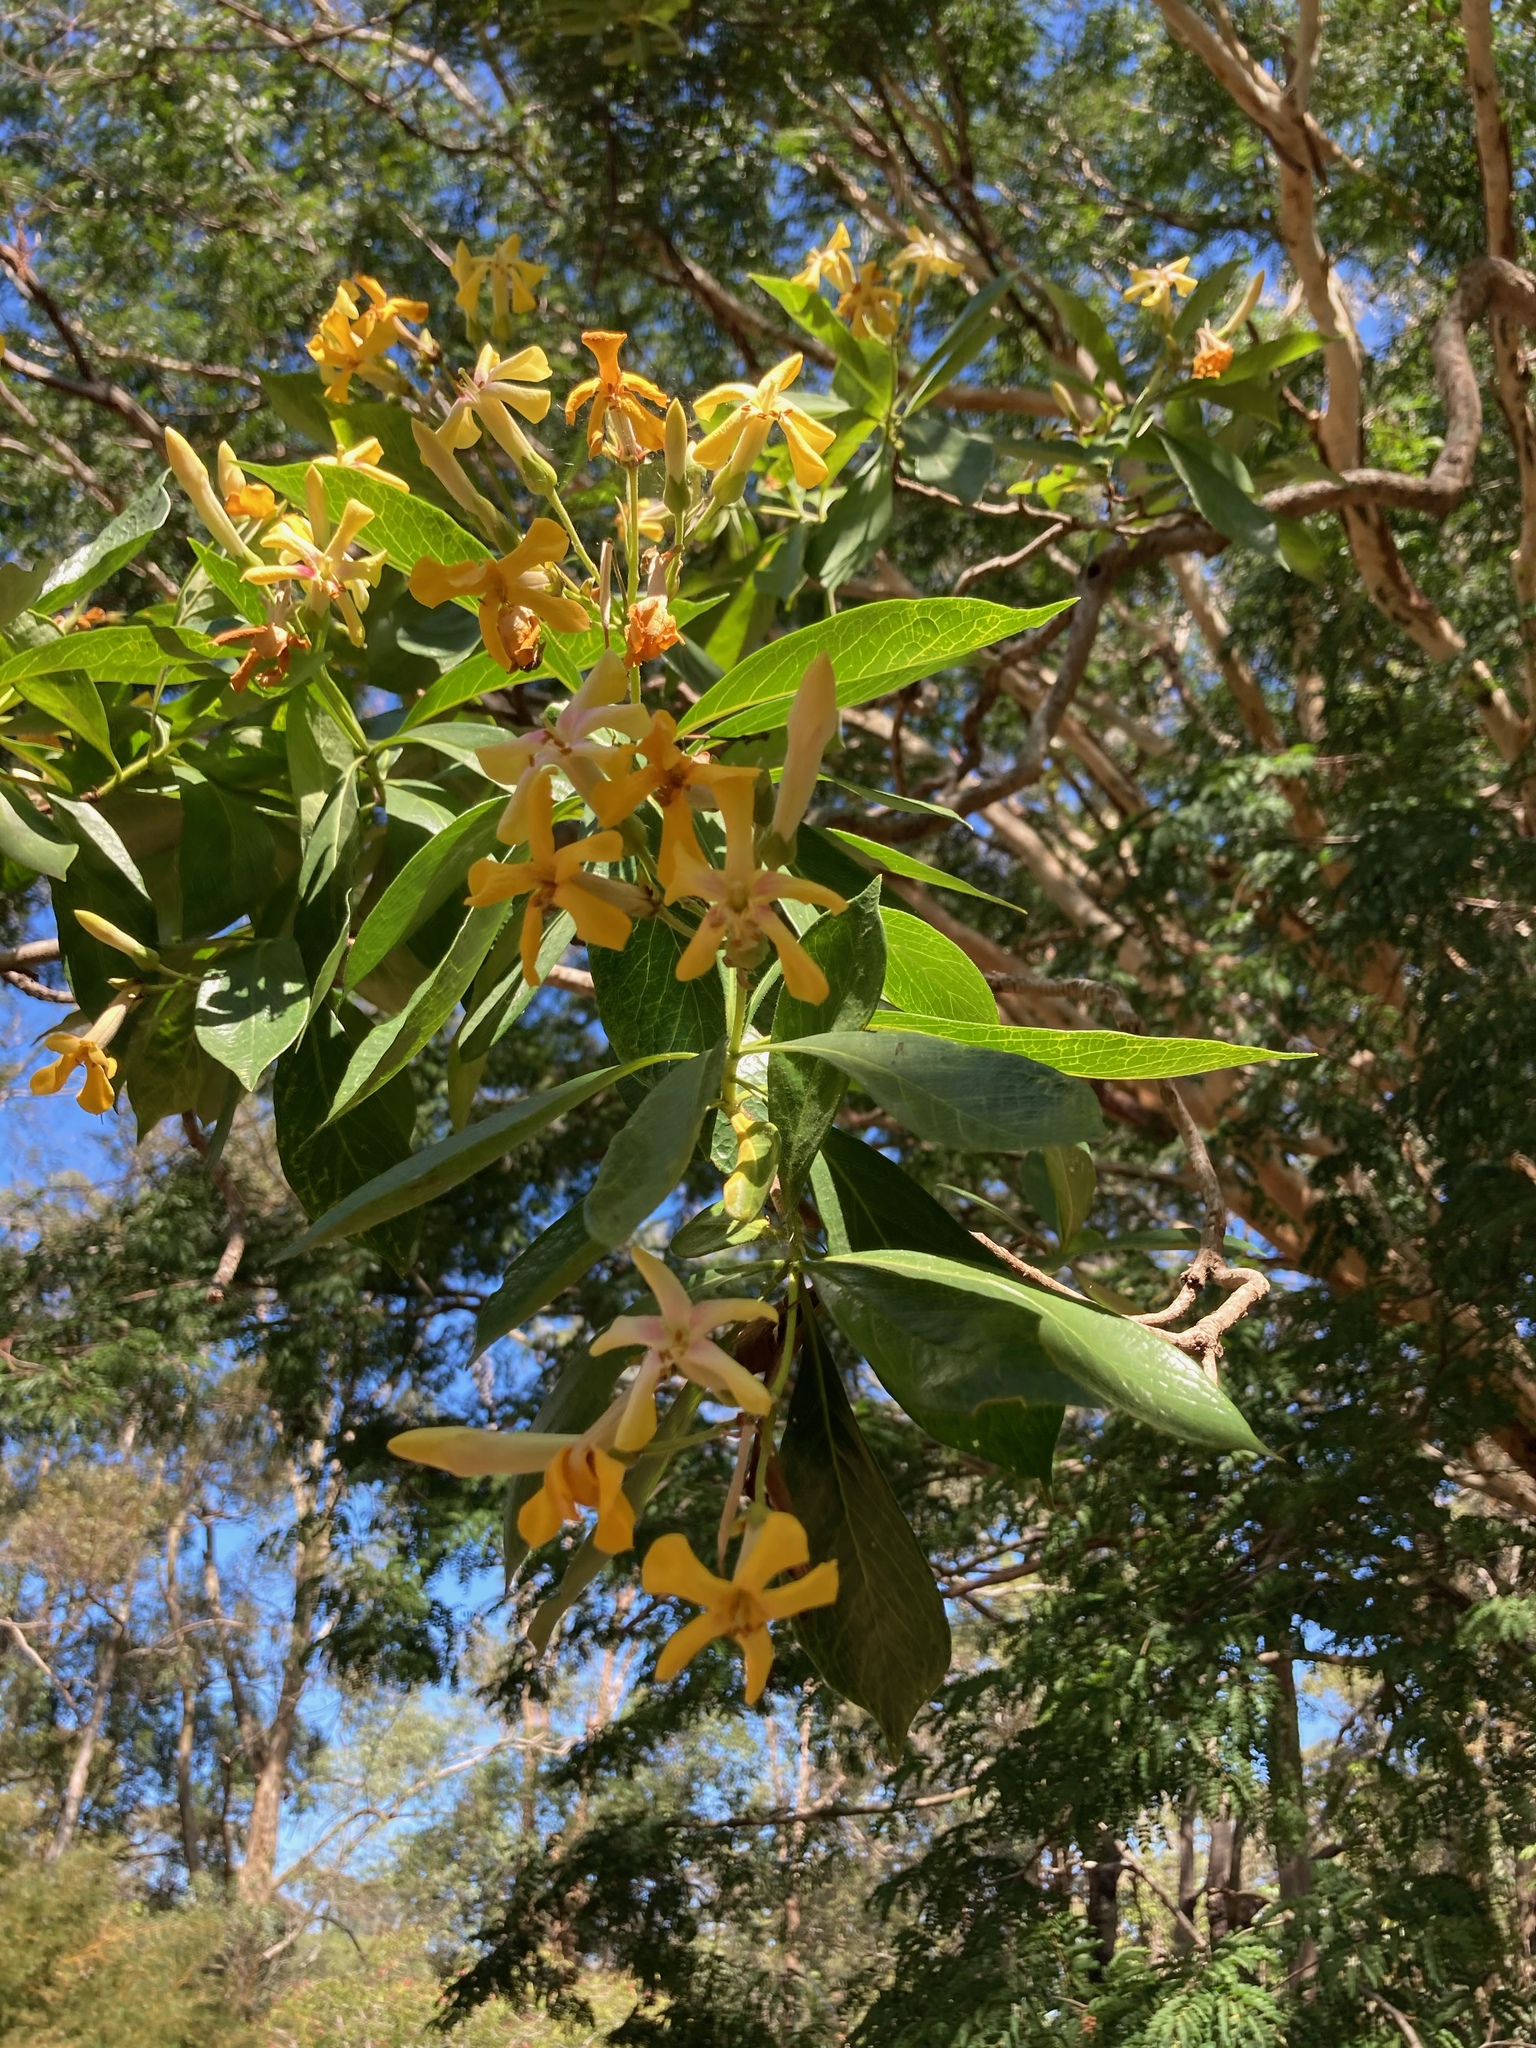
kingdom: Plantae
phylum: Tracheophyta
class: Magnoliopsida
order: Apiales
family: Pittosporaceae
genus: Hymenosporum
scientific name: Hymenosporum flavum
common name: Native frangipani
